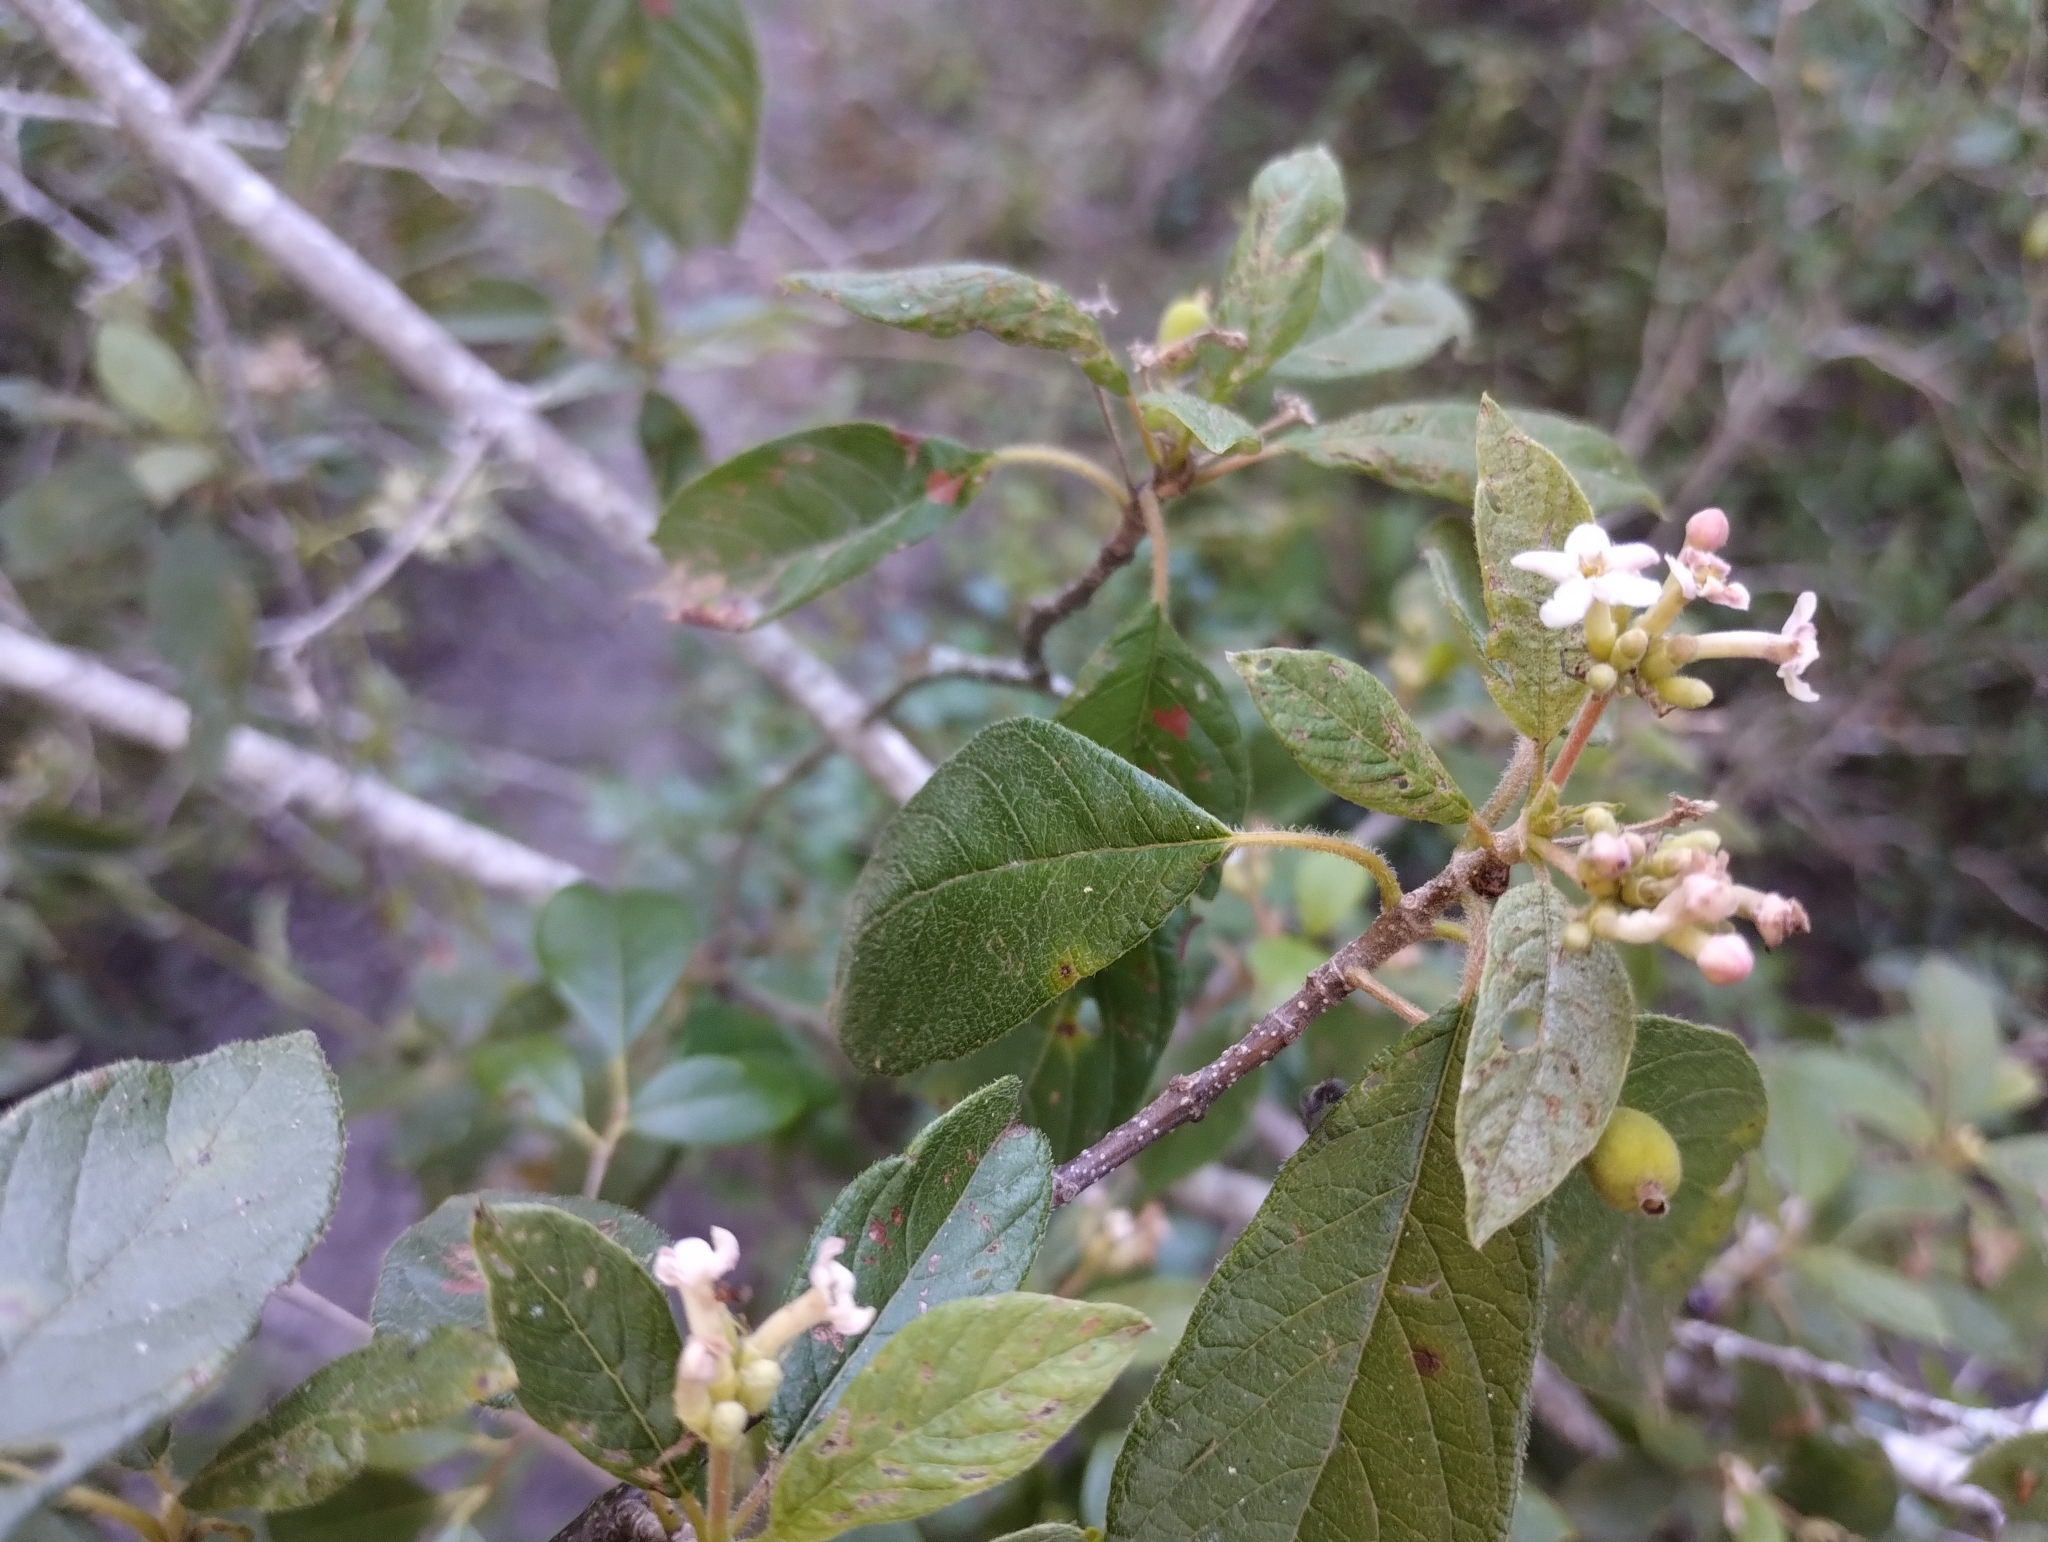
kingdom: Plantae
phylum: Tracheophyta
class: Magnoliopsida
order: Gentianales
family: Rubiaceae
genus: Guettarda
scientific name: Guettarda uruguensis
